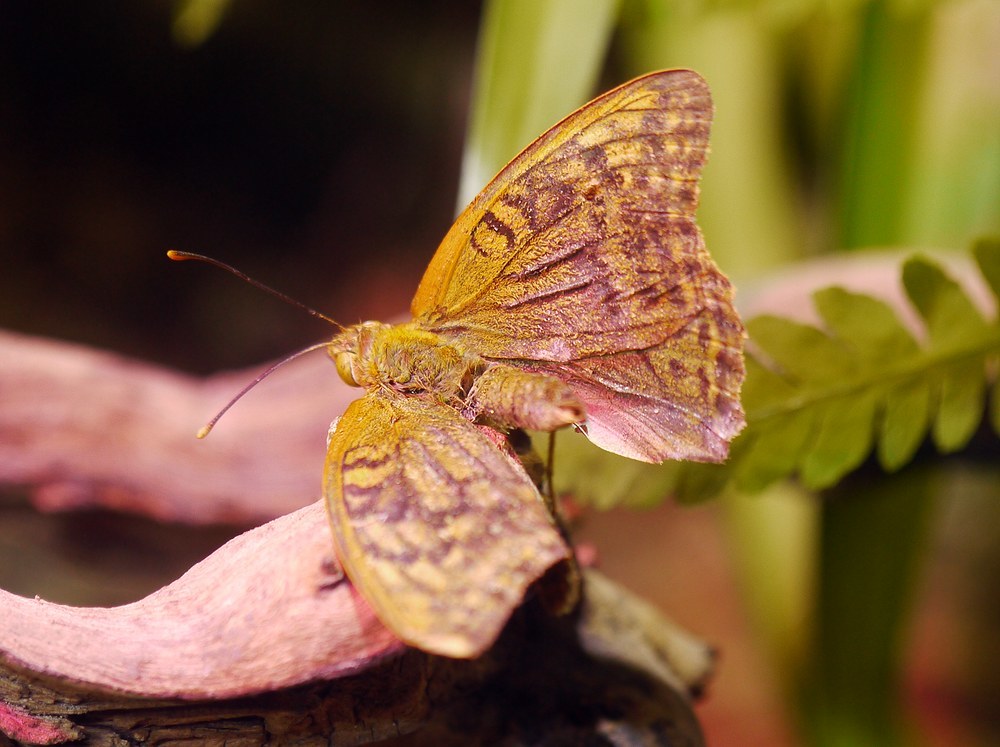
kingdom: Animalia
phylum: Arthropoda
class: Insecta
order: Lepidoptera
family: Nymphalidae
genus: Damora
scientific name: Damora pandora
